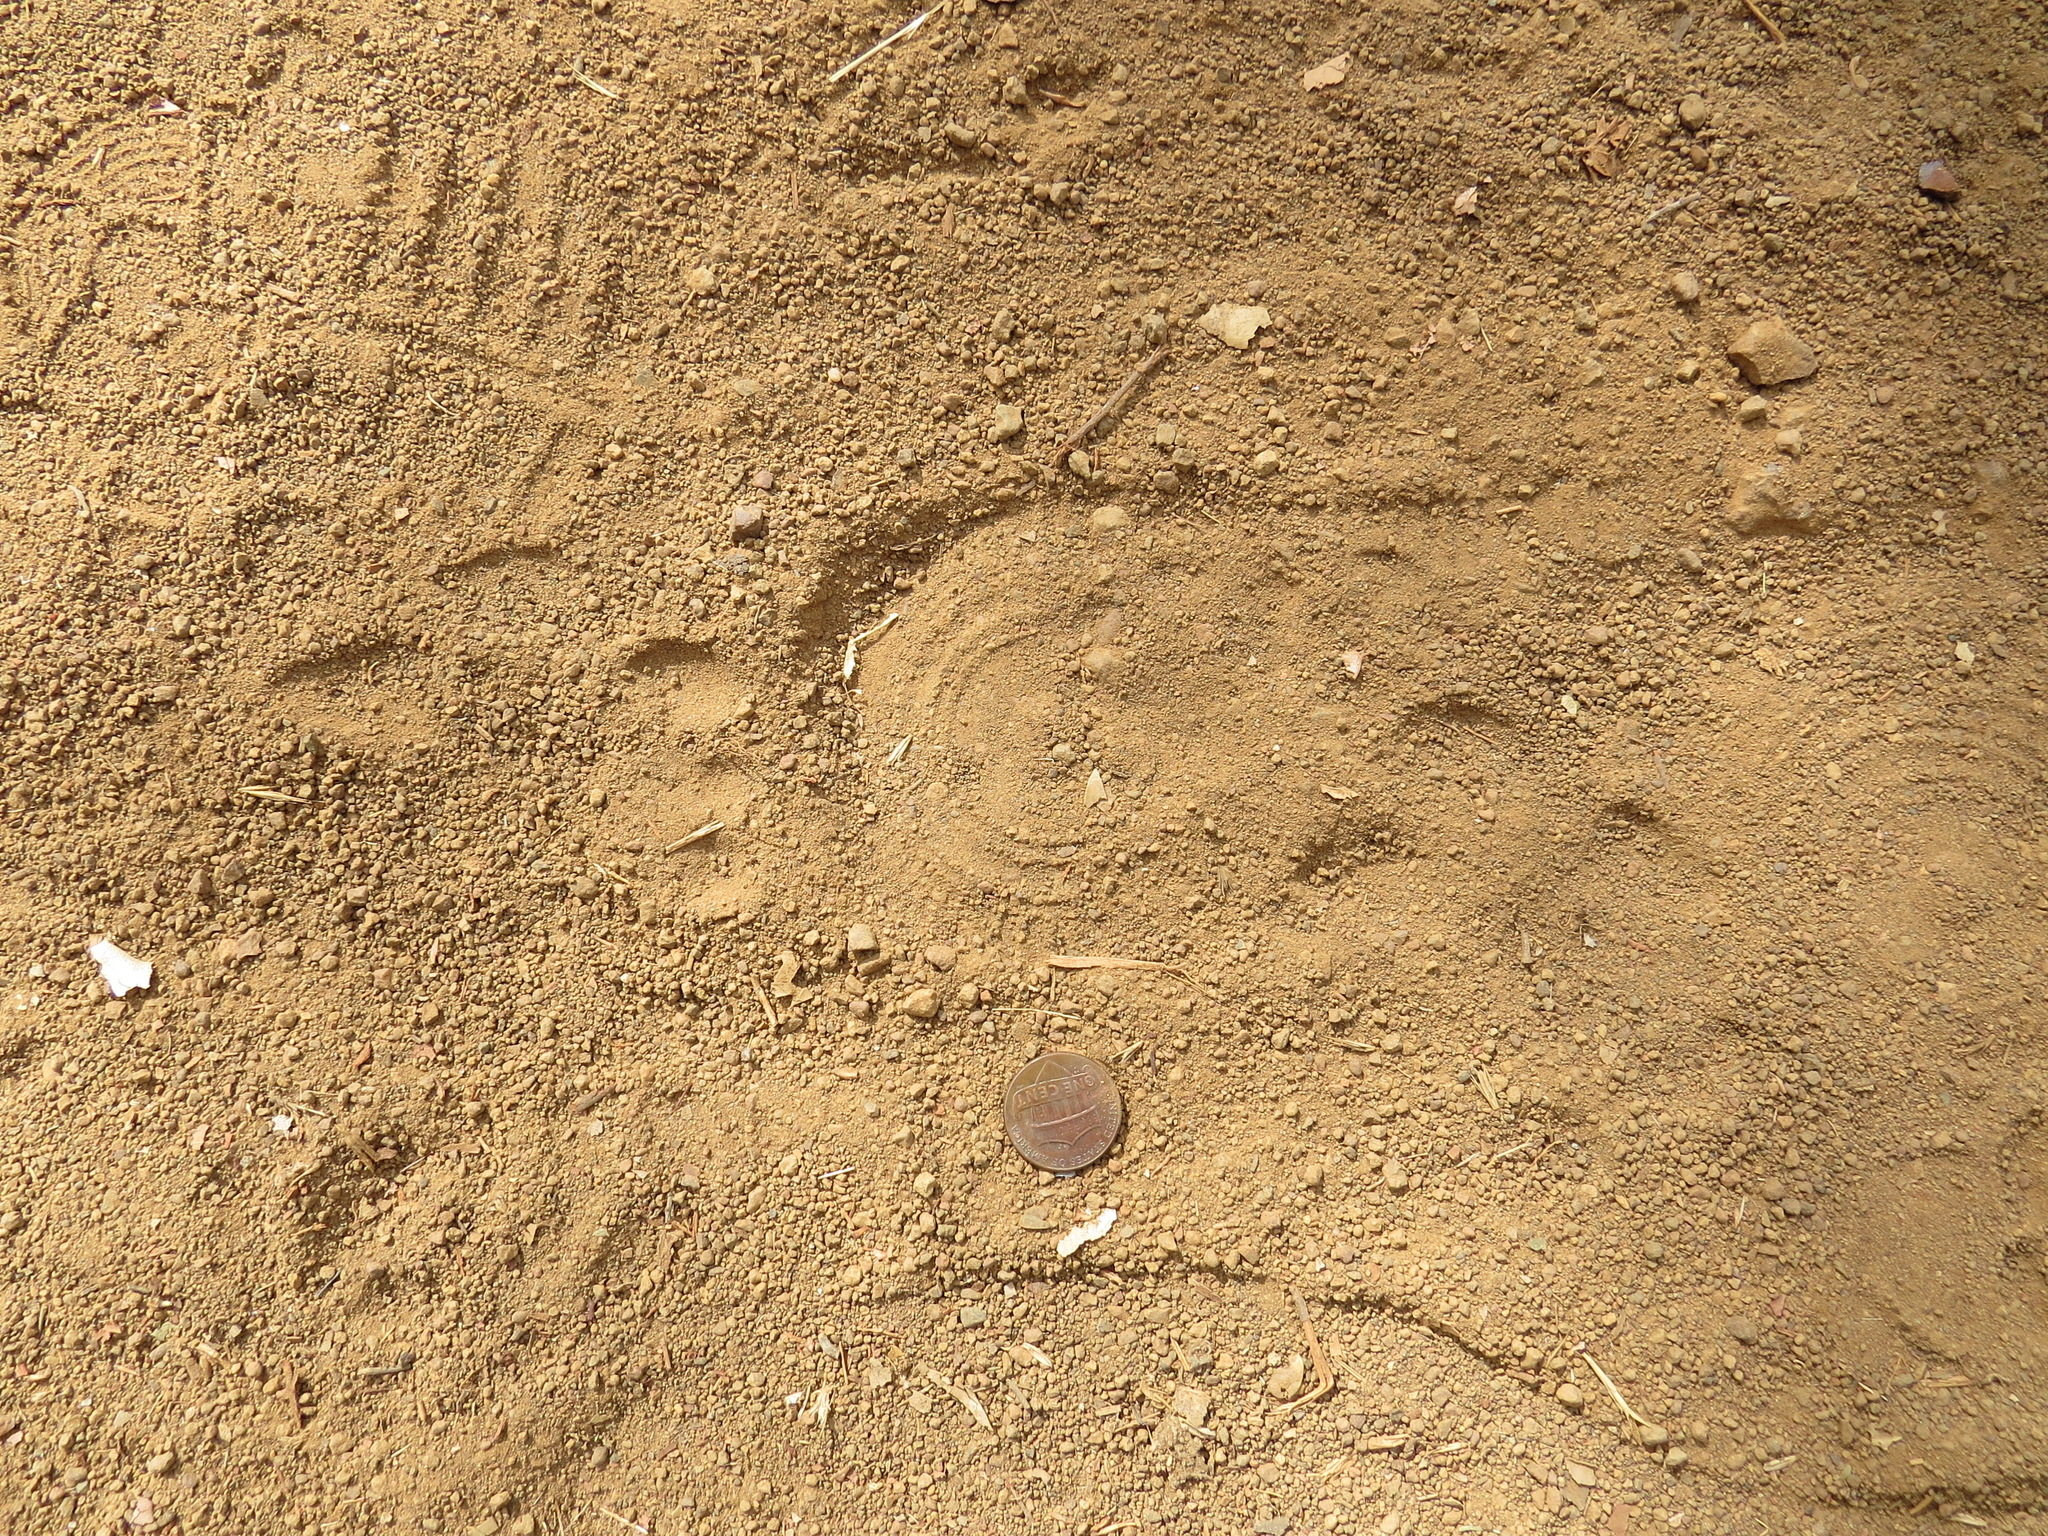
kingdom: Animalia
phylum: Chordata
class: Mammalia
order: Carnivora
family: Felidae
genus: Puma
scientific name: Puma concolor
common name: Puma
